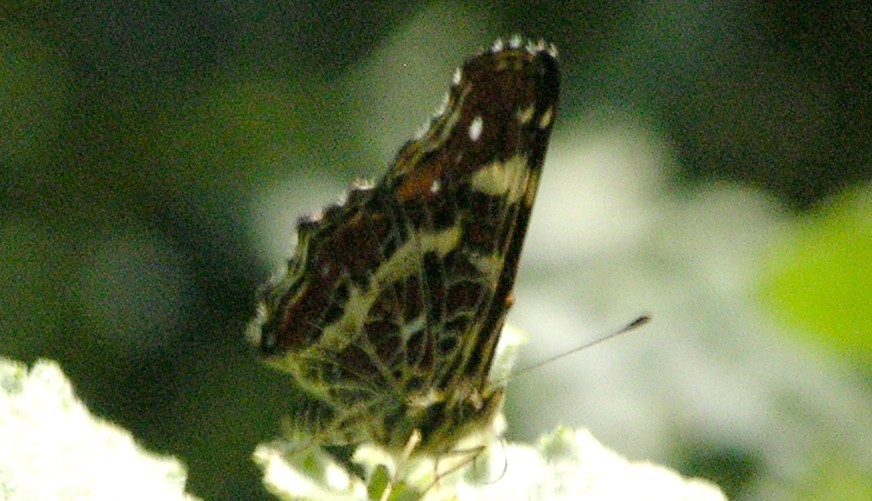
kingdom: Animalia
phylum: Arthropoda
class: Insecta
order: Lepidoptera
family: Nymphalidae
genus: Araschnia
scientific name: Araschnia levana
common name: Map butterfly
